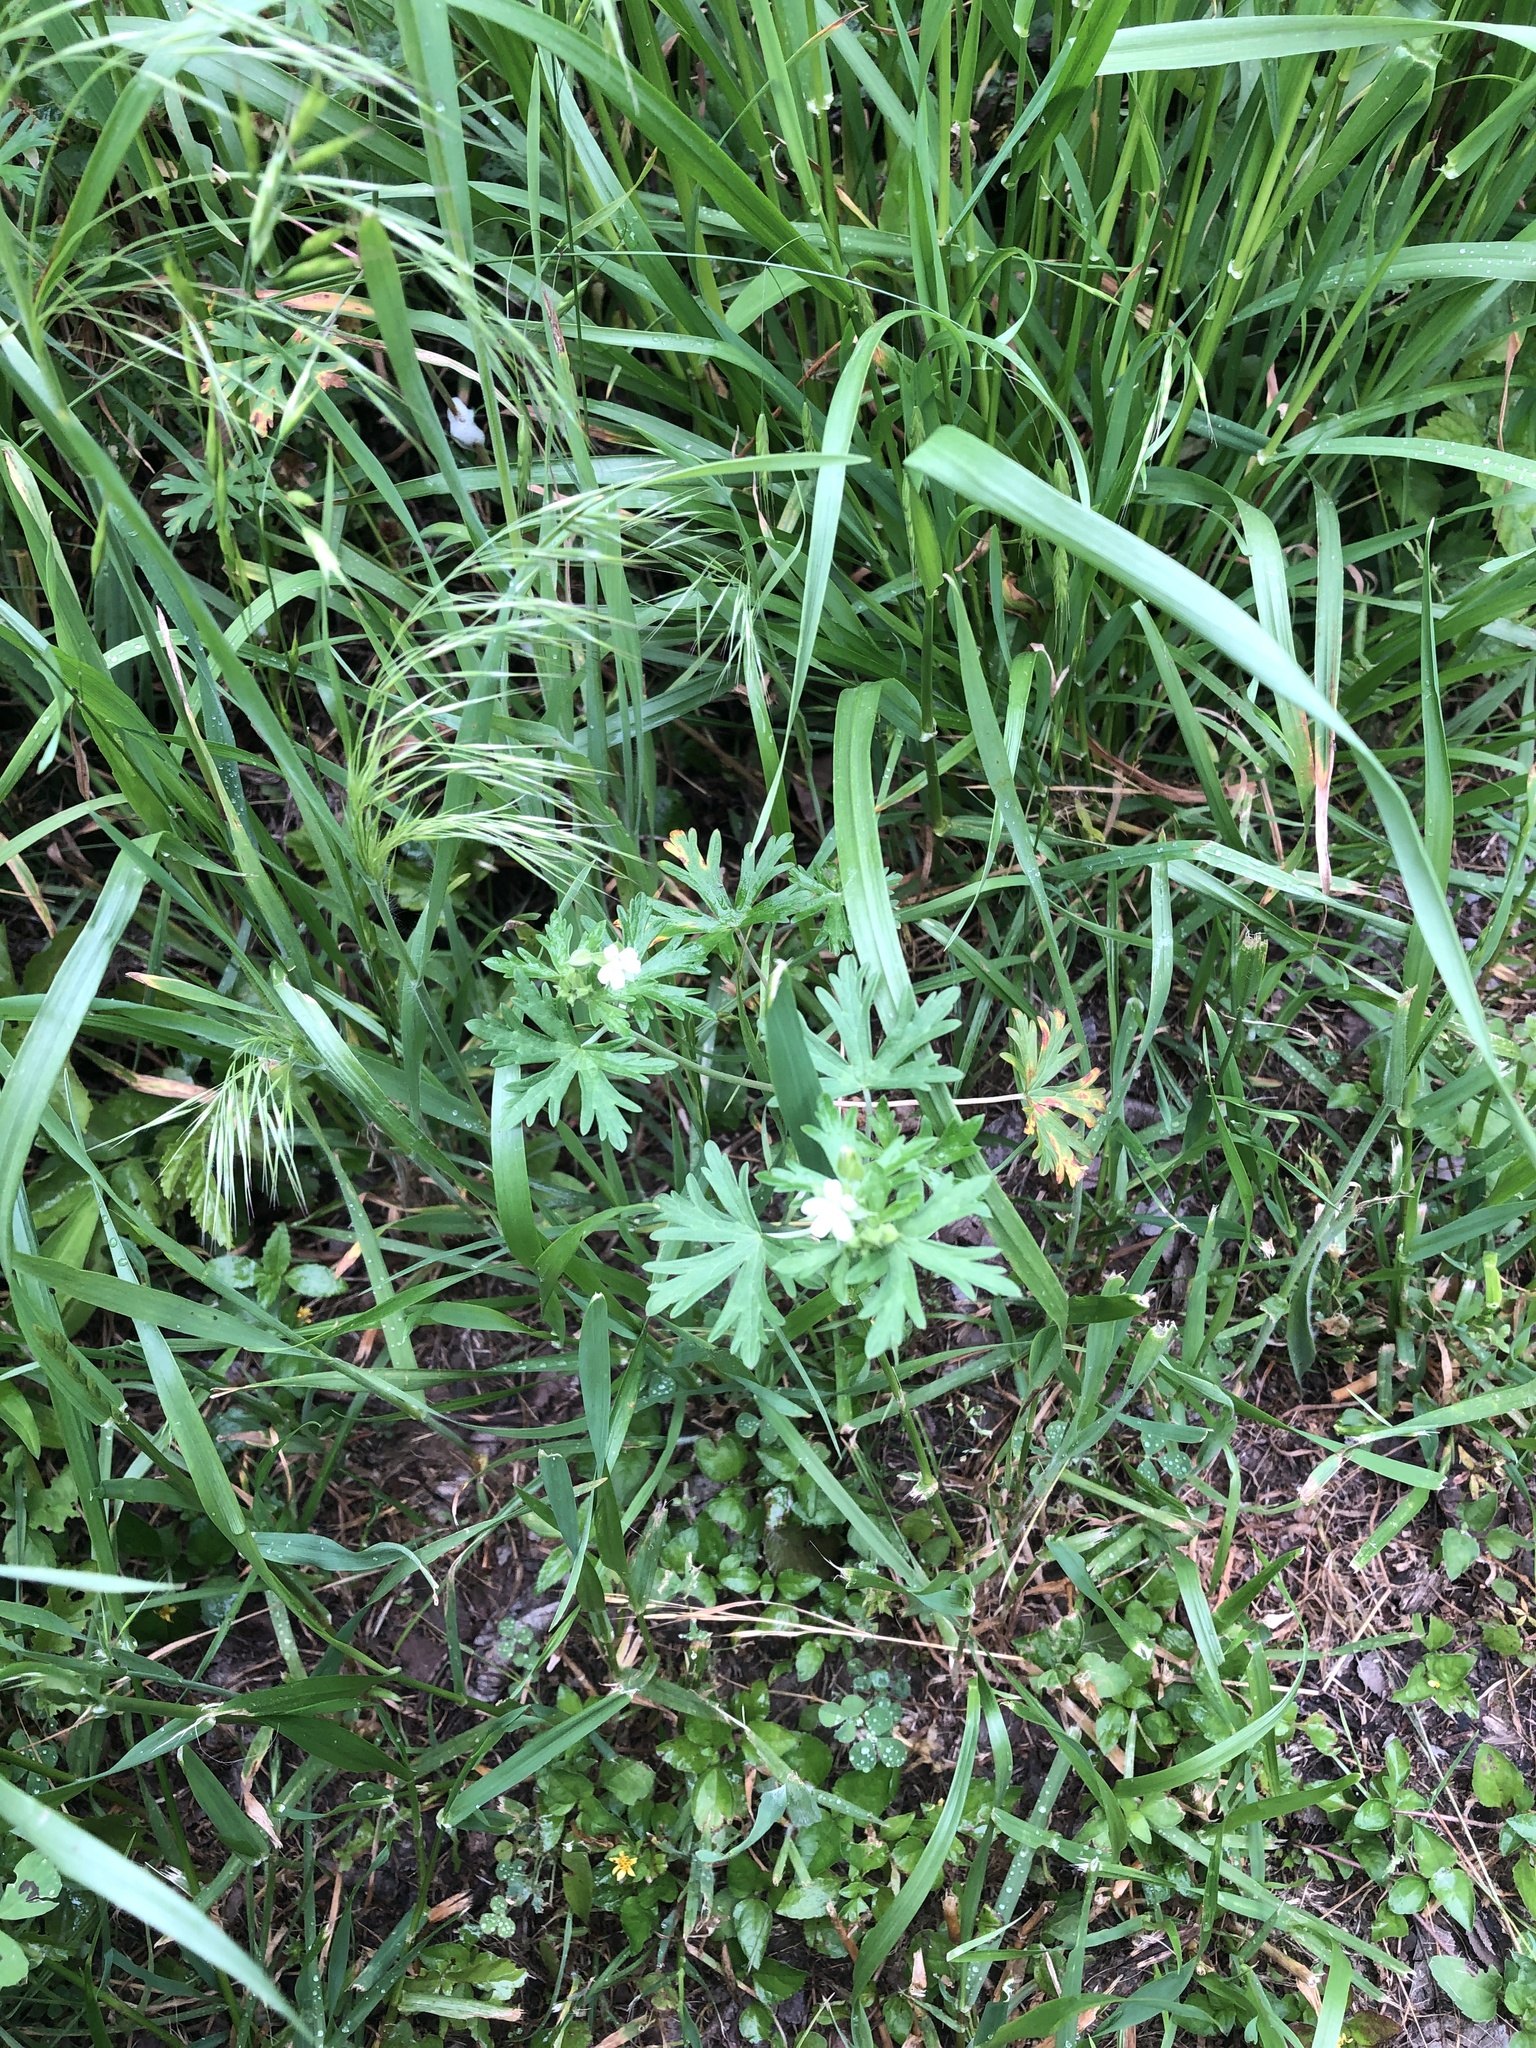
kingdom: Plantae
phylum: Tracheophyta
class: Magnoliopsida
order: Geraniales
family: Geraniaceae
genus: Geranium
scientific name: Geranium carolinianum
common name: Carolina crane's-bill
